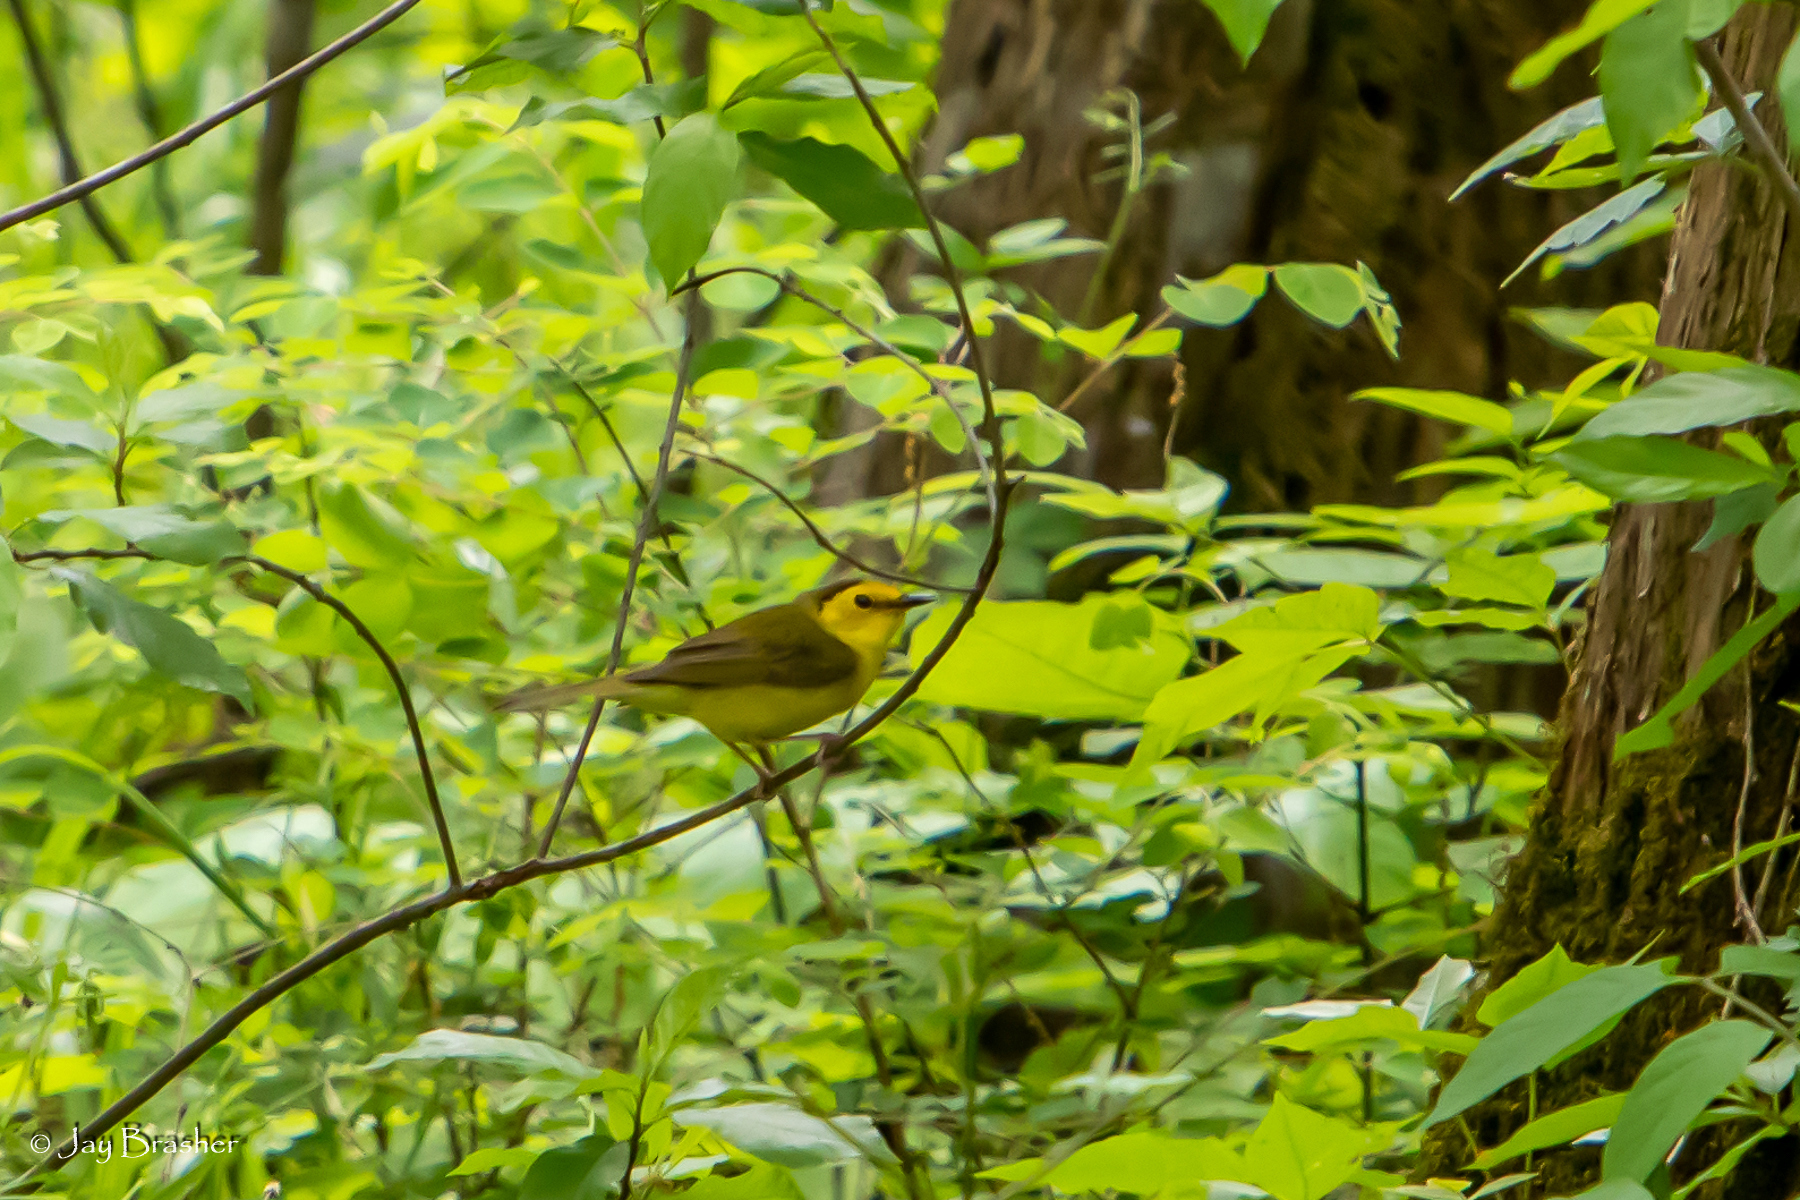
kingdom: Animalia
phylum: Chordata
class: Aves
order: Passeriformes
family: Parulidae
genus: Cardellina
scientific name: Cardellina pusilla
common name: Wilson's warbler
